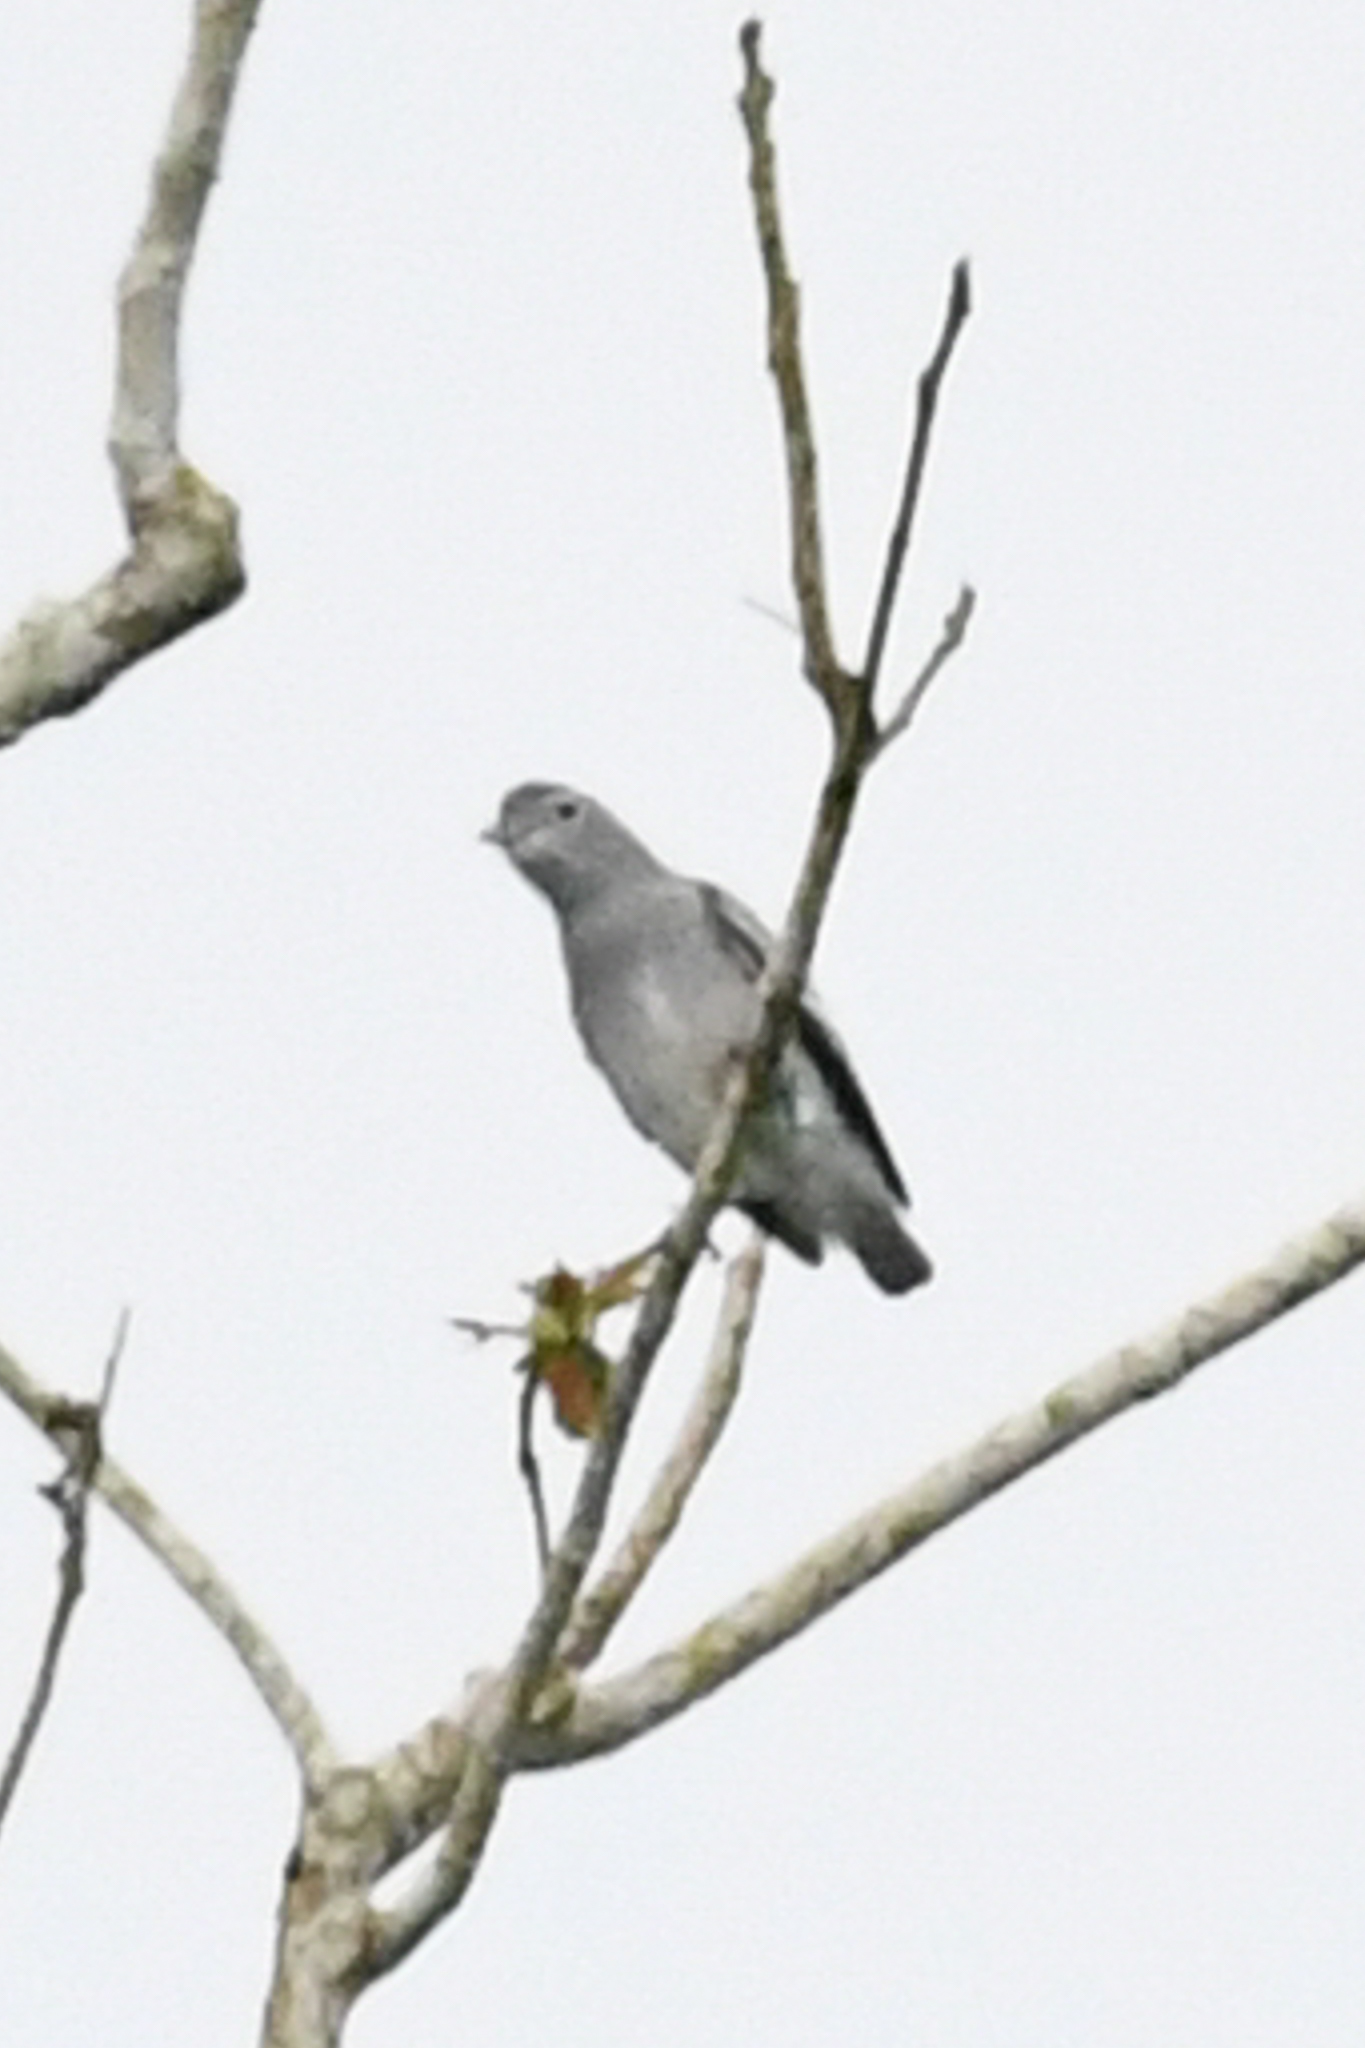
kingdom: Animalia
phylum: Chordata
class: Aves
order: Passeriformes
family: Cotingidae
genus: Carpodectes
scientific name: Carpodectes nitidus
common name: Snowy cotinga
